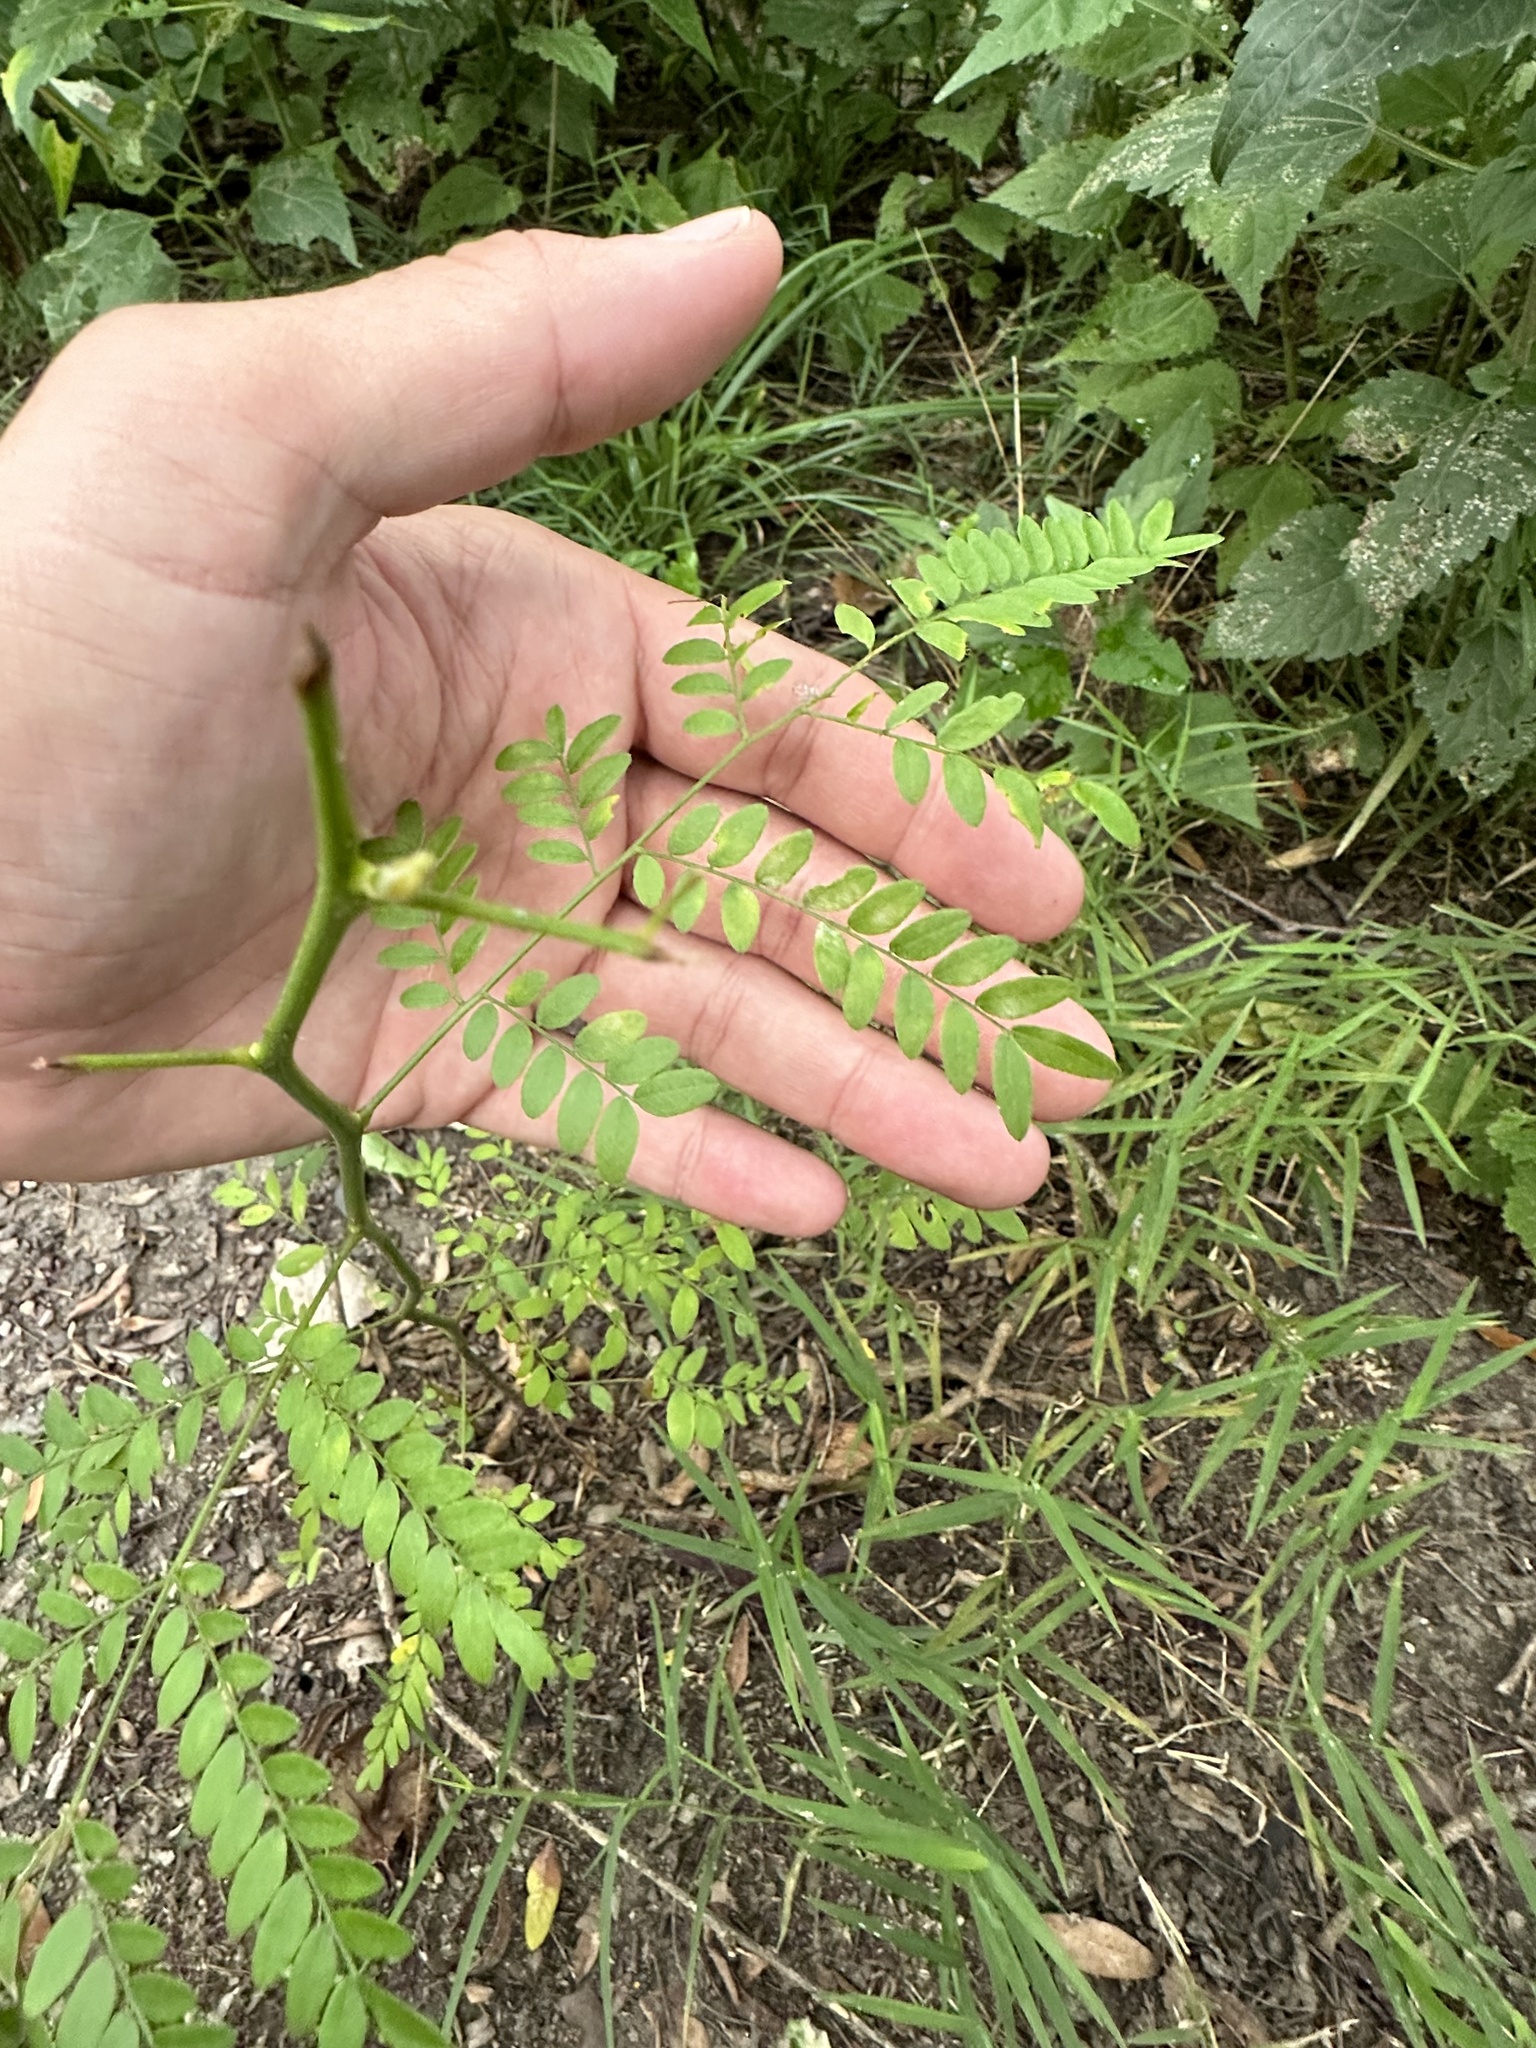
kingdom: Plantae
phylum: Tracheophyta
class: Magnoliopsida
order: Fabales
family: Fabaceae
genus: Gleditsia
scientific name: Gleditsia triacanthos
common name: Common honeylocust
